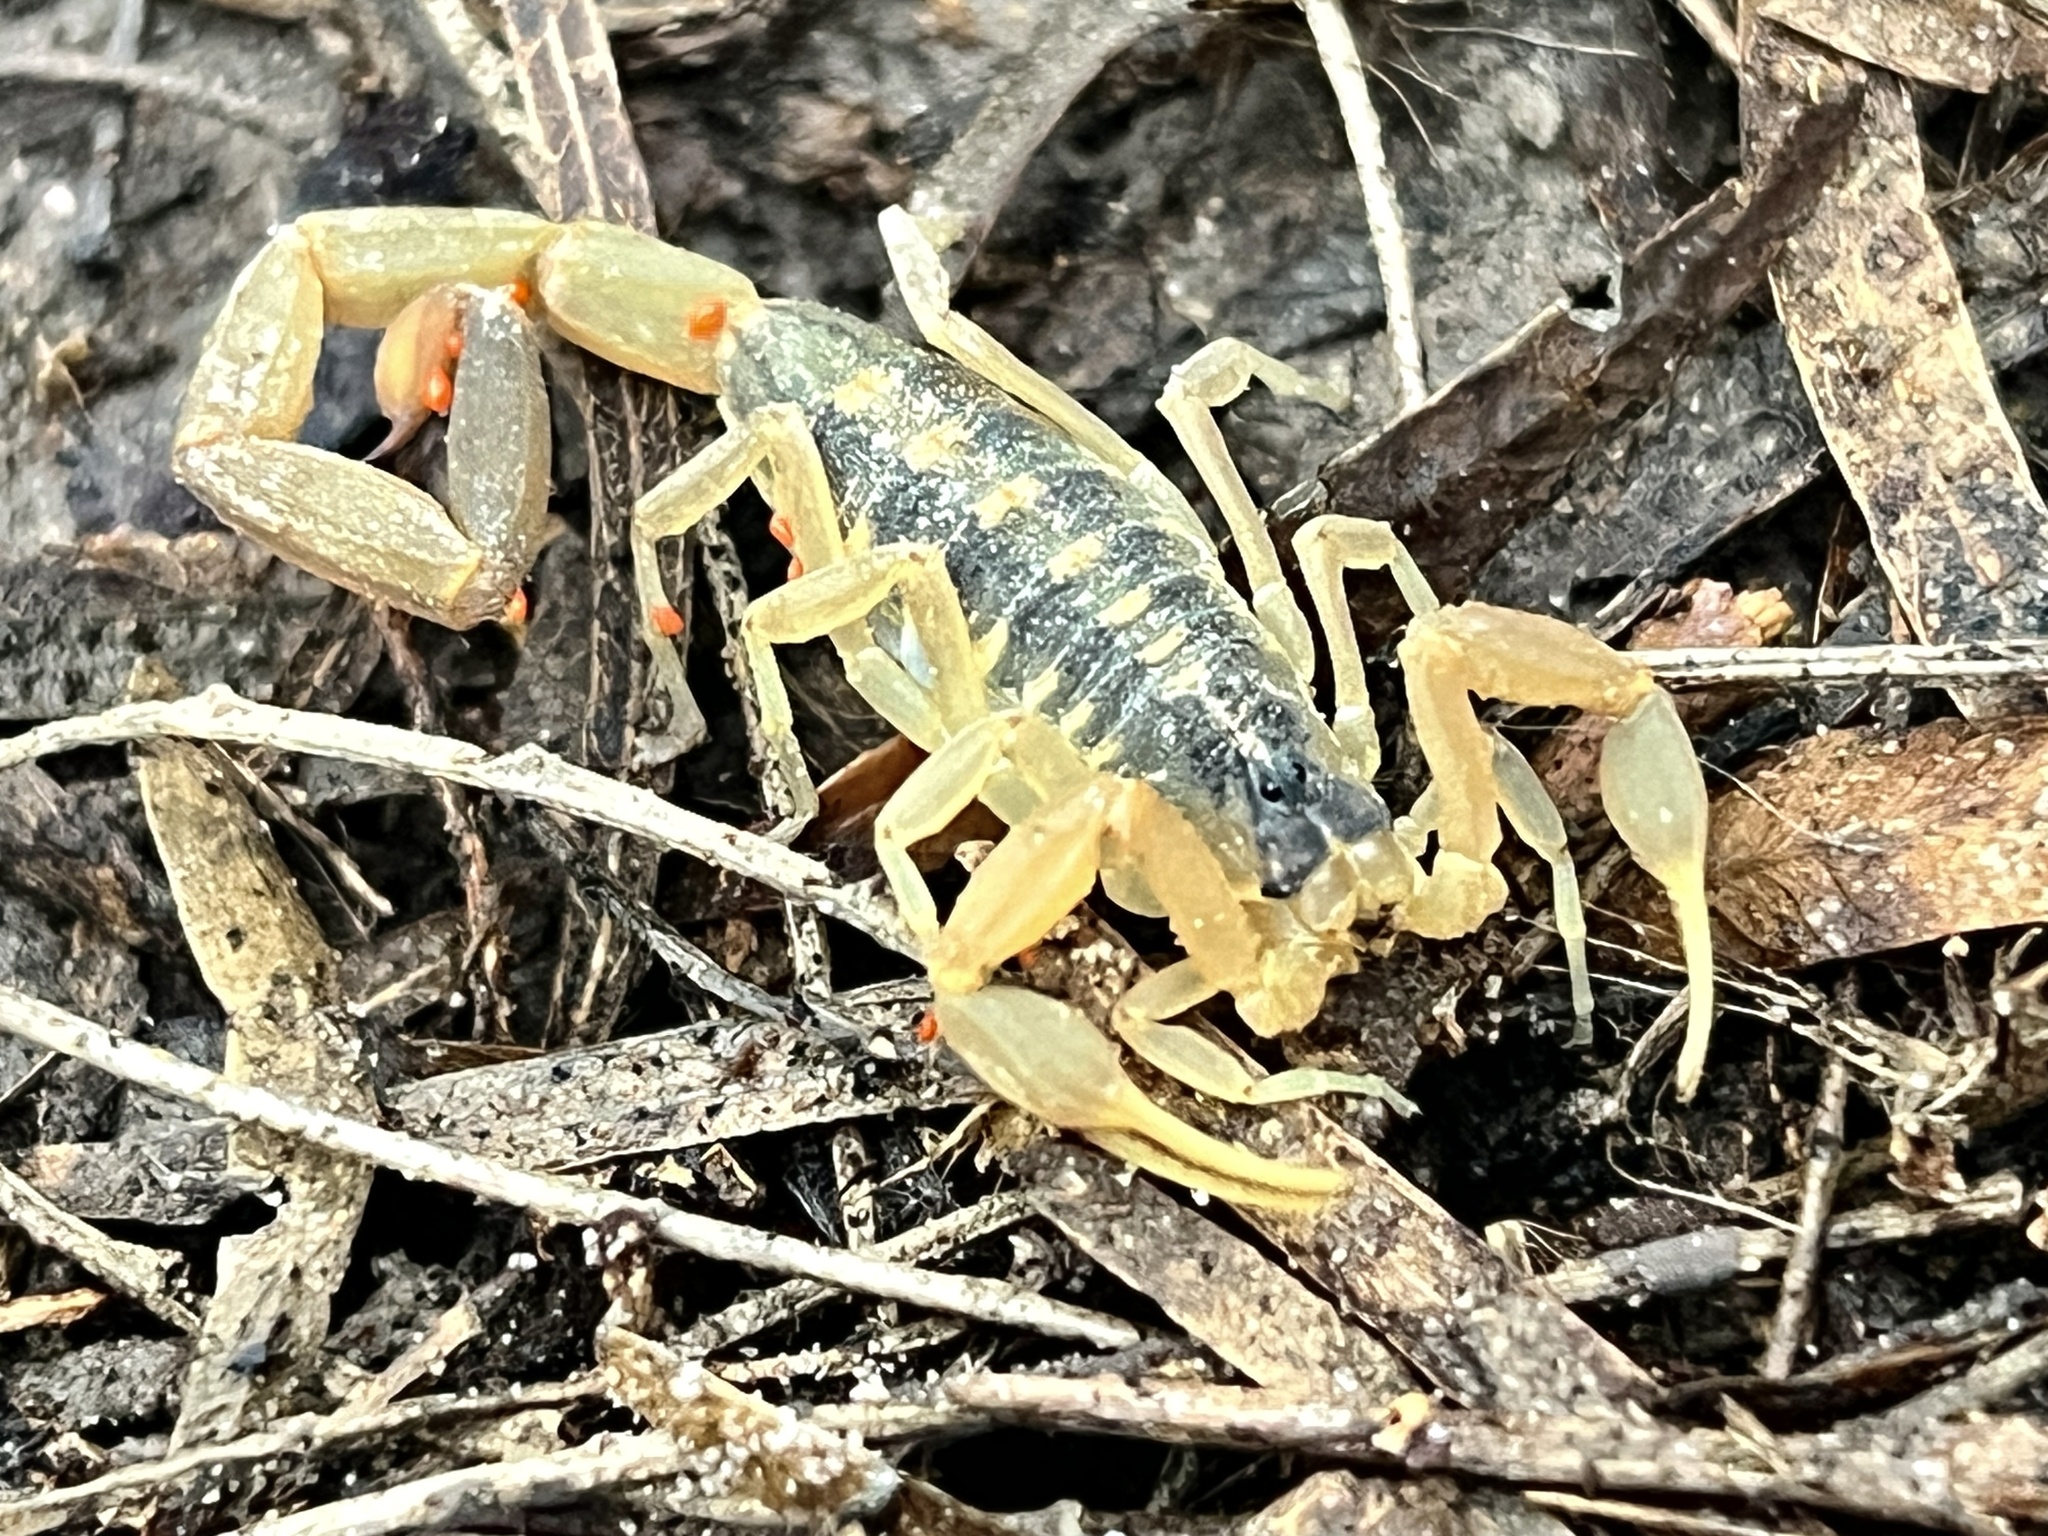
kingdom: Animalia
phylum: Arthropoda
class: Arachnida
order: Scorpiones
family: Buthidae
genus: Centruroides
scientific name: Centruroides vittatus
